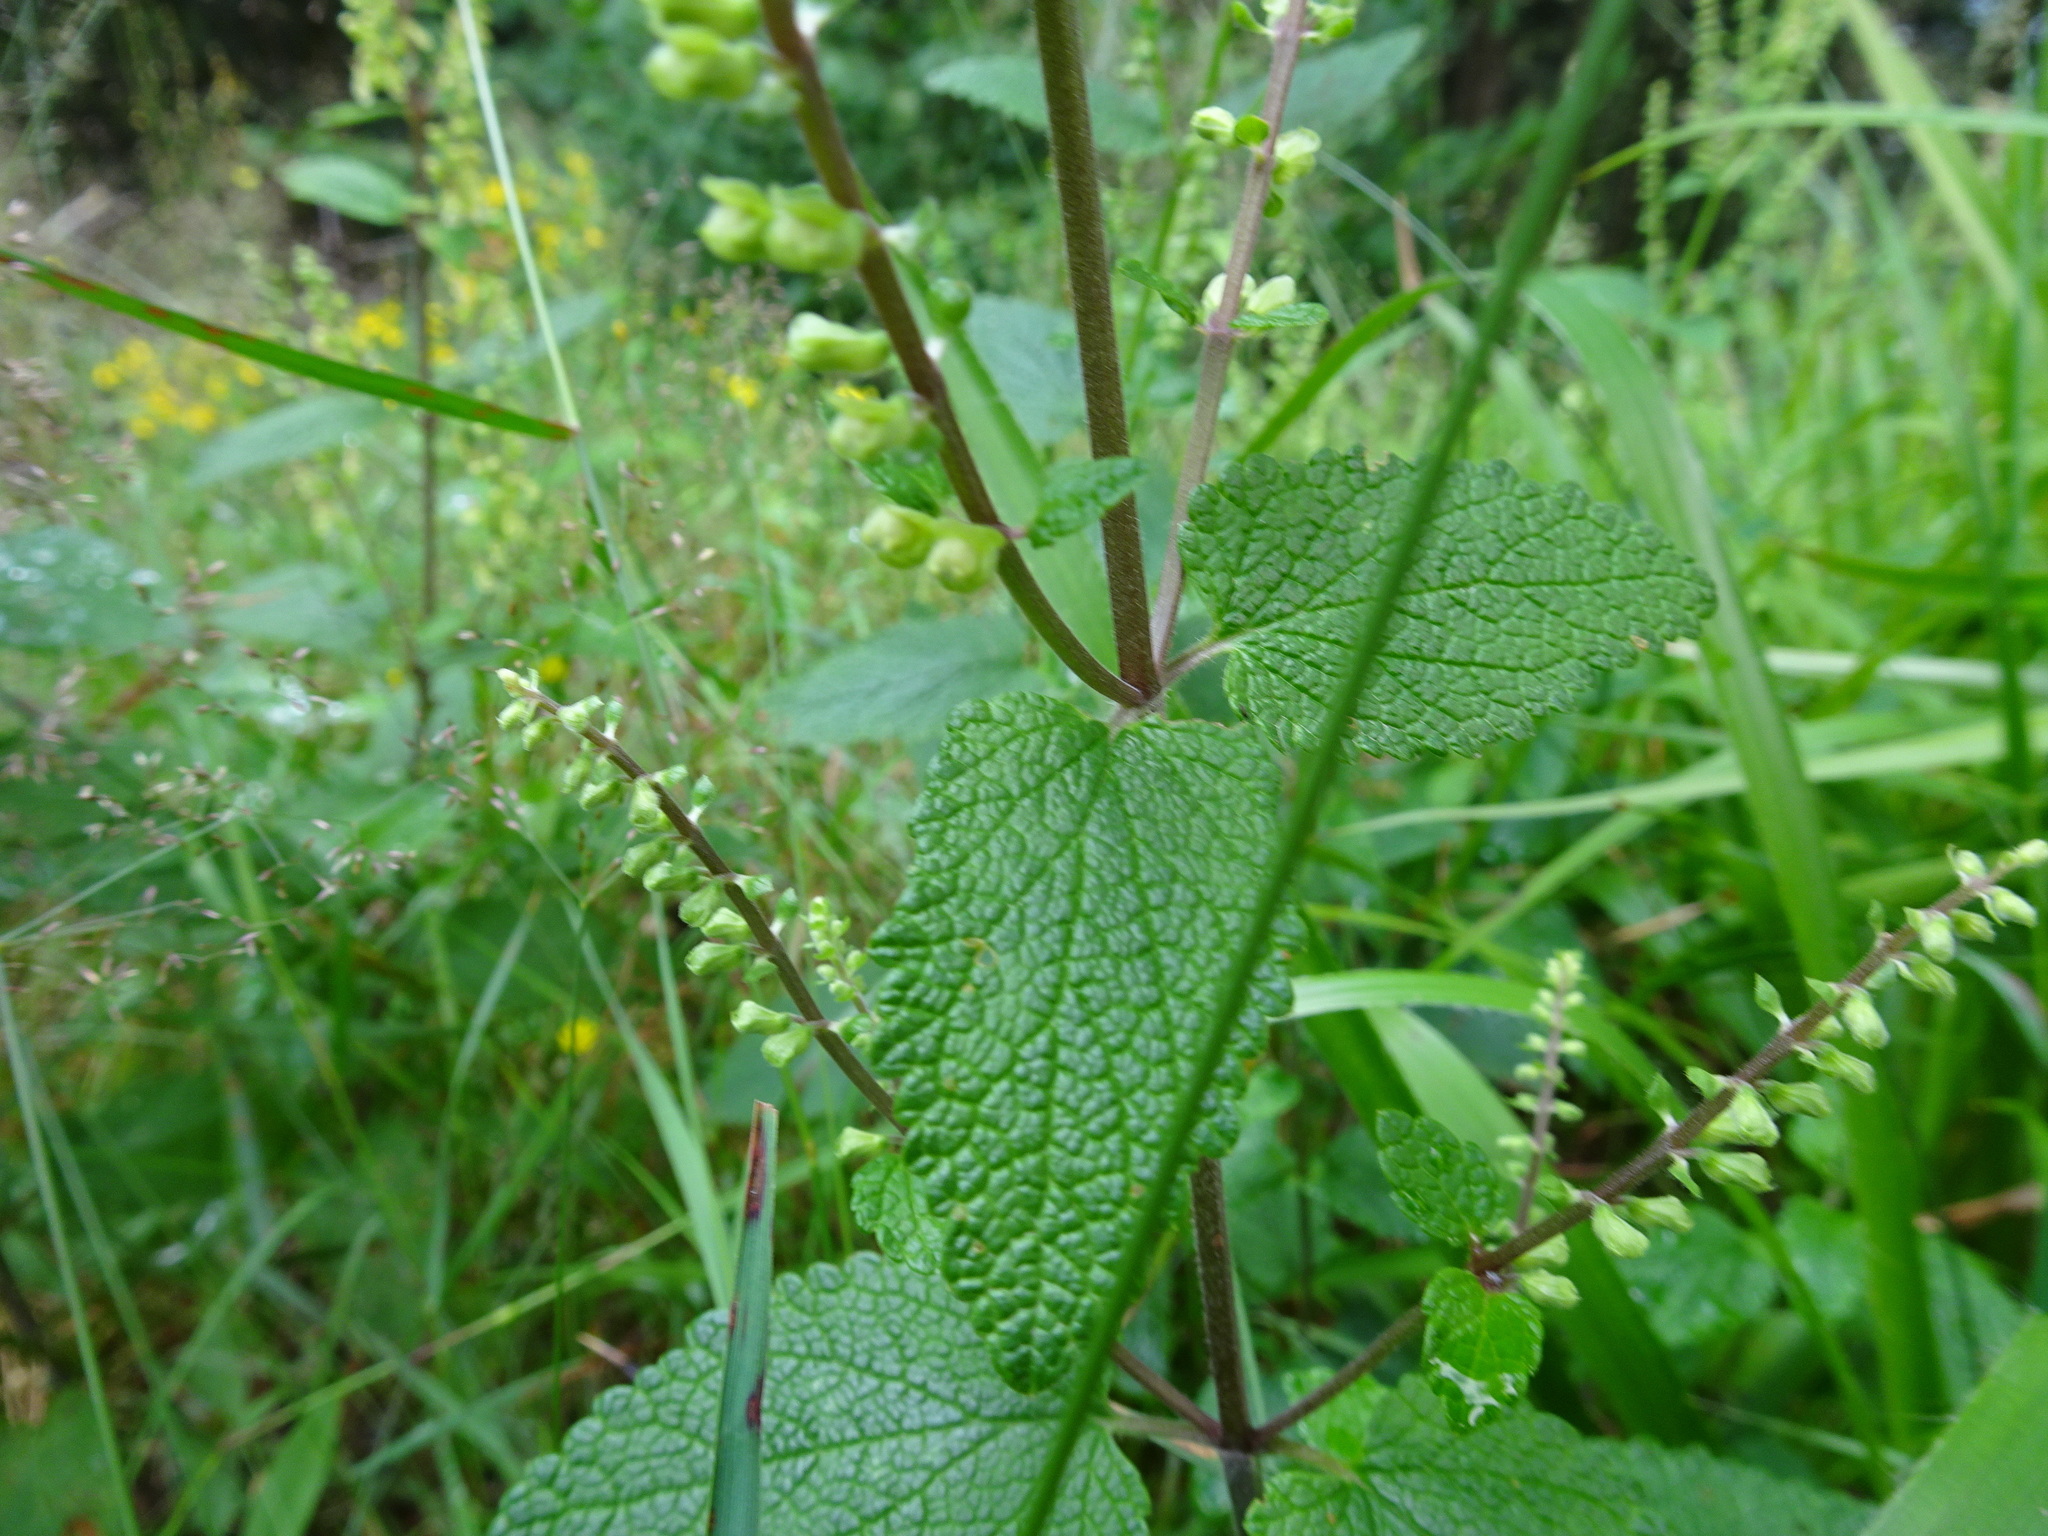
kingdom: Plantae
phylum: Tracheophyta
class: Magnoliopsida
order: Lamiales
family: Lamiaceae
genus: Teucrium
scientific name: Teucrium scorodonia
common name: Woodland germander
